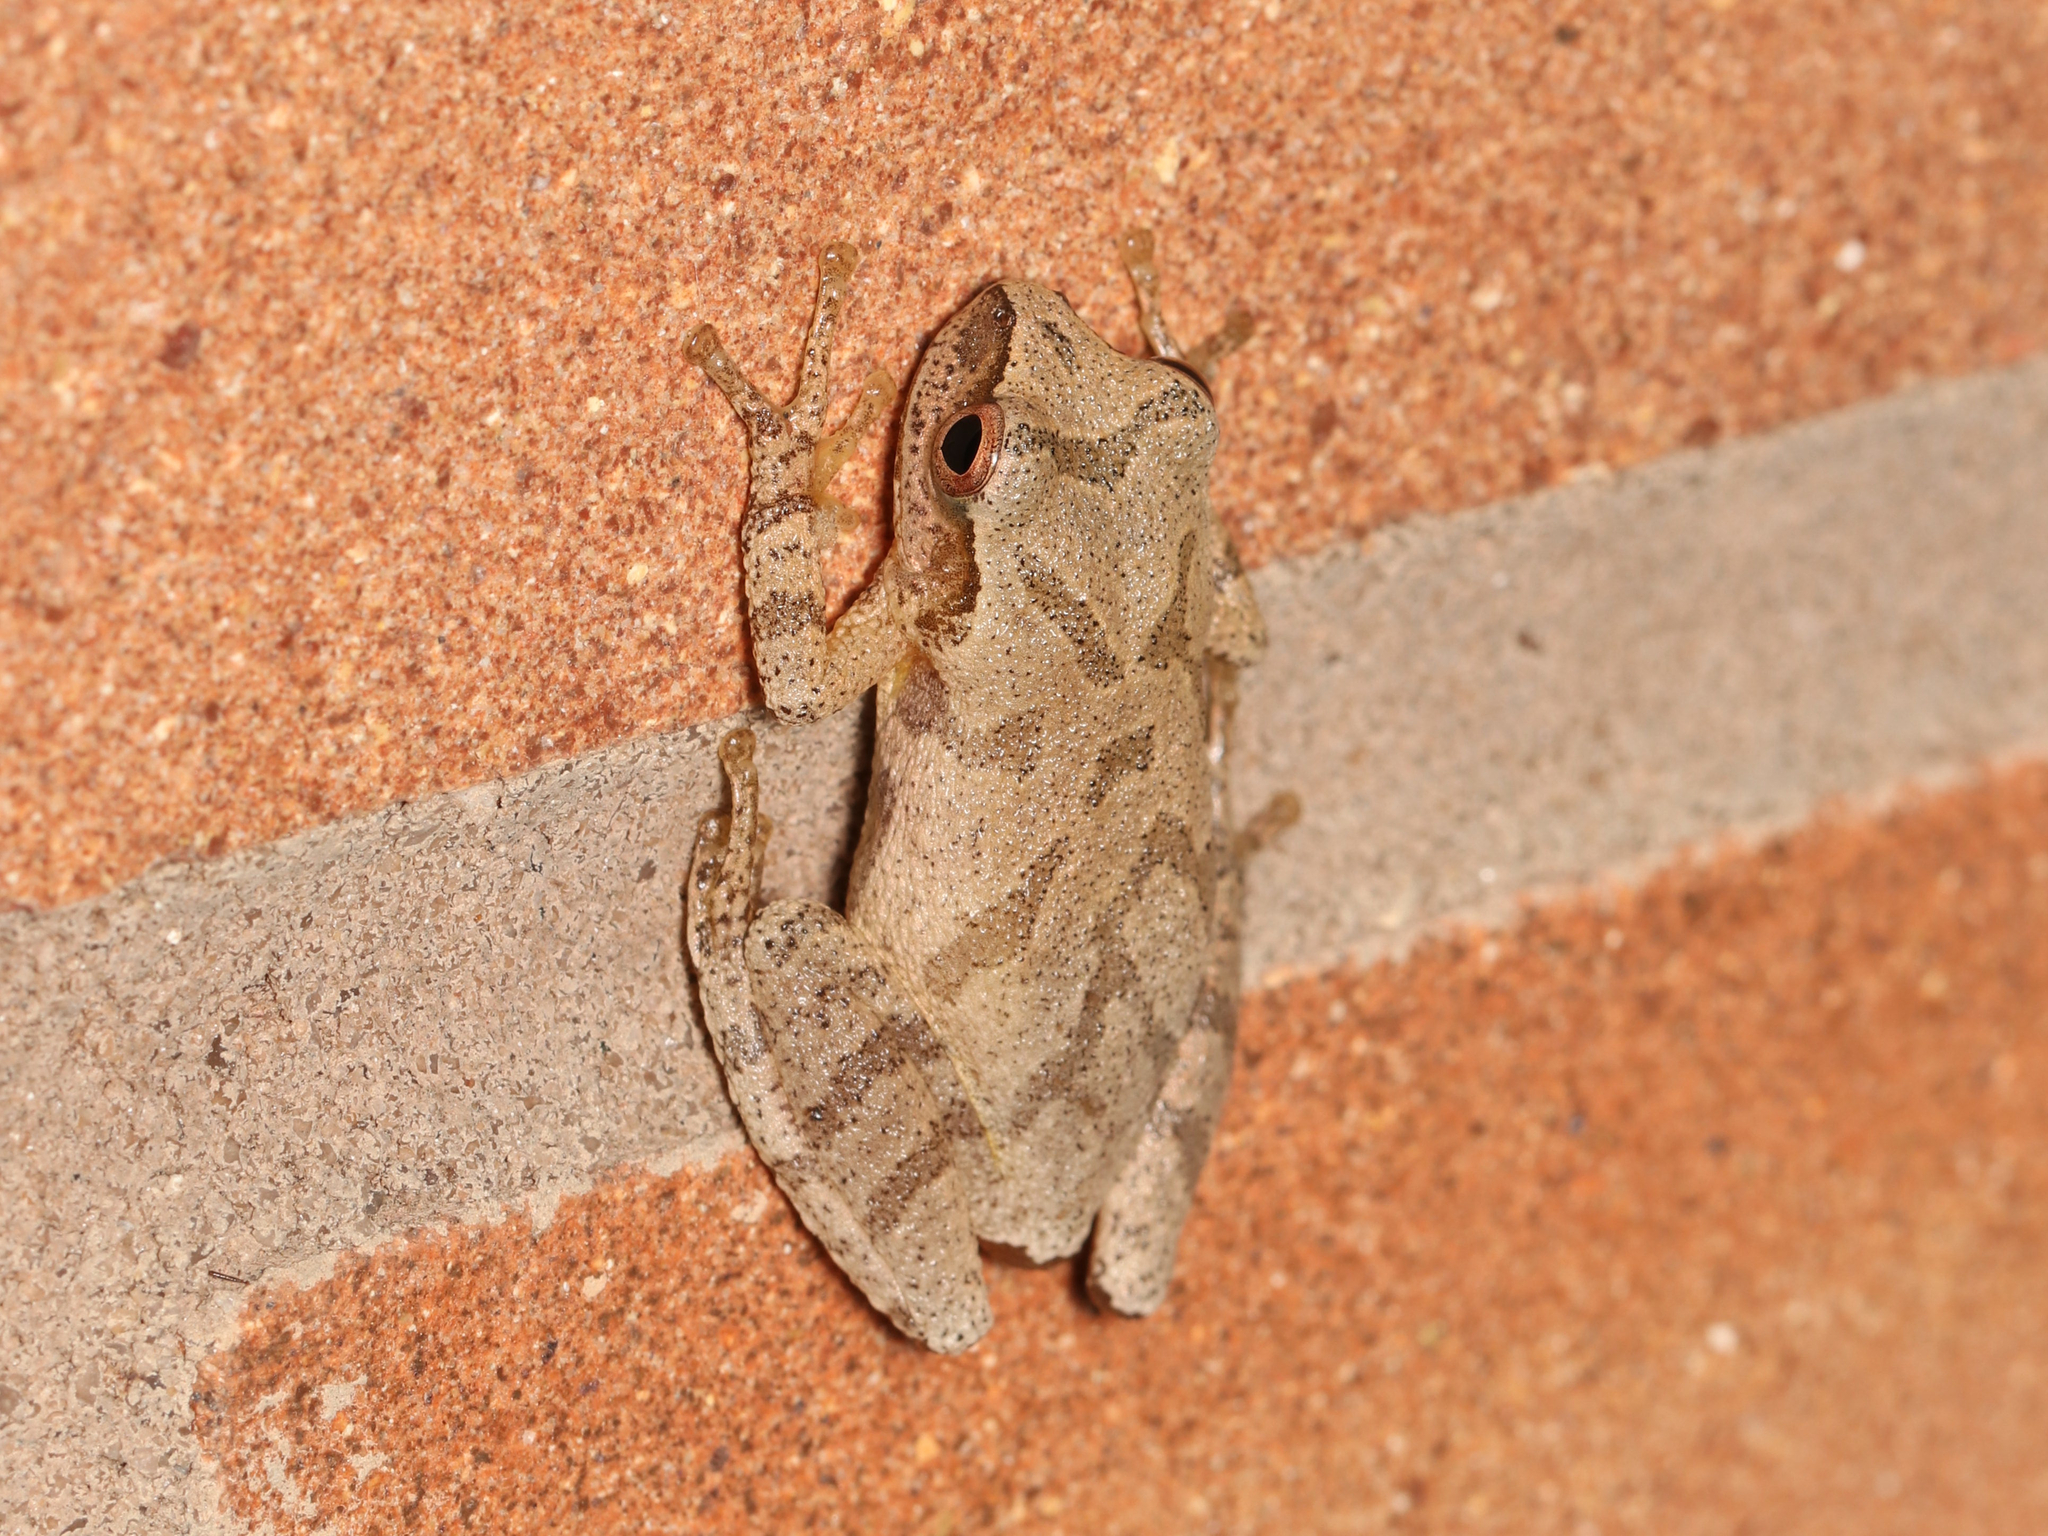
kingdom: Animalia
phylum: Chordata
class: Amphibia
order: Anura
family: Hylidae
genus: Pseudacris
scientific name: Pseudacris crucifer
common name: Spring peeper
